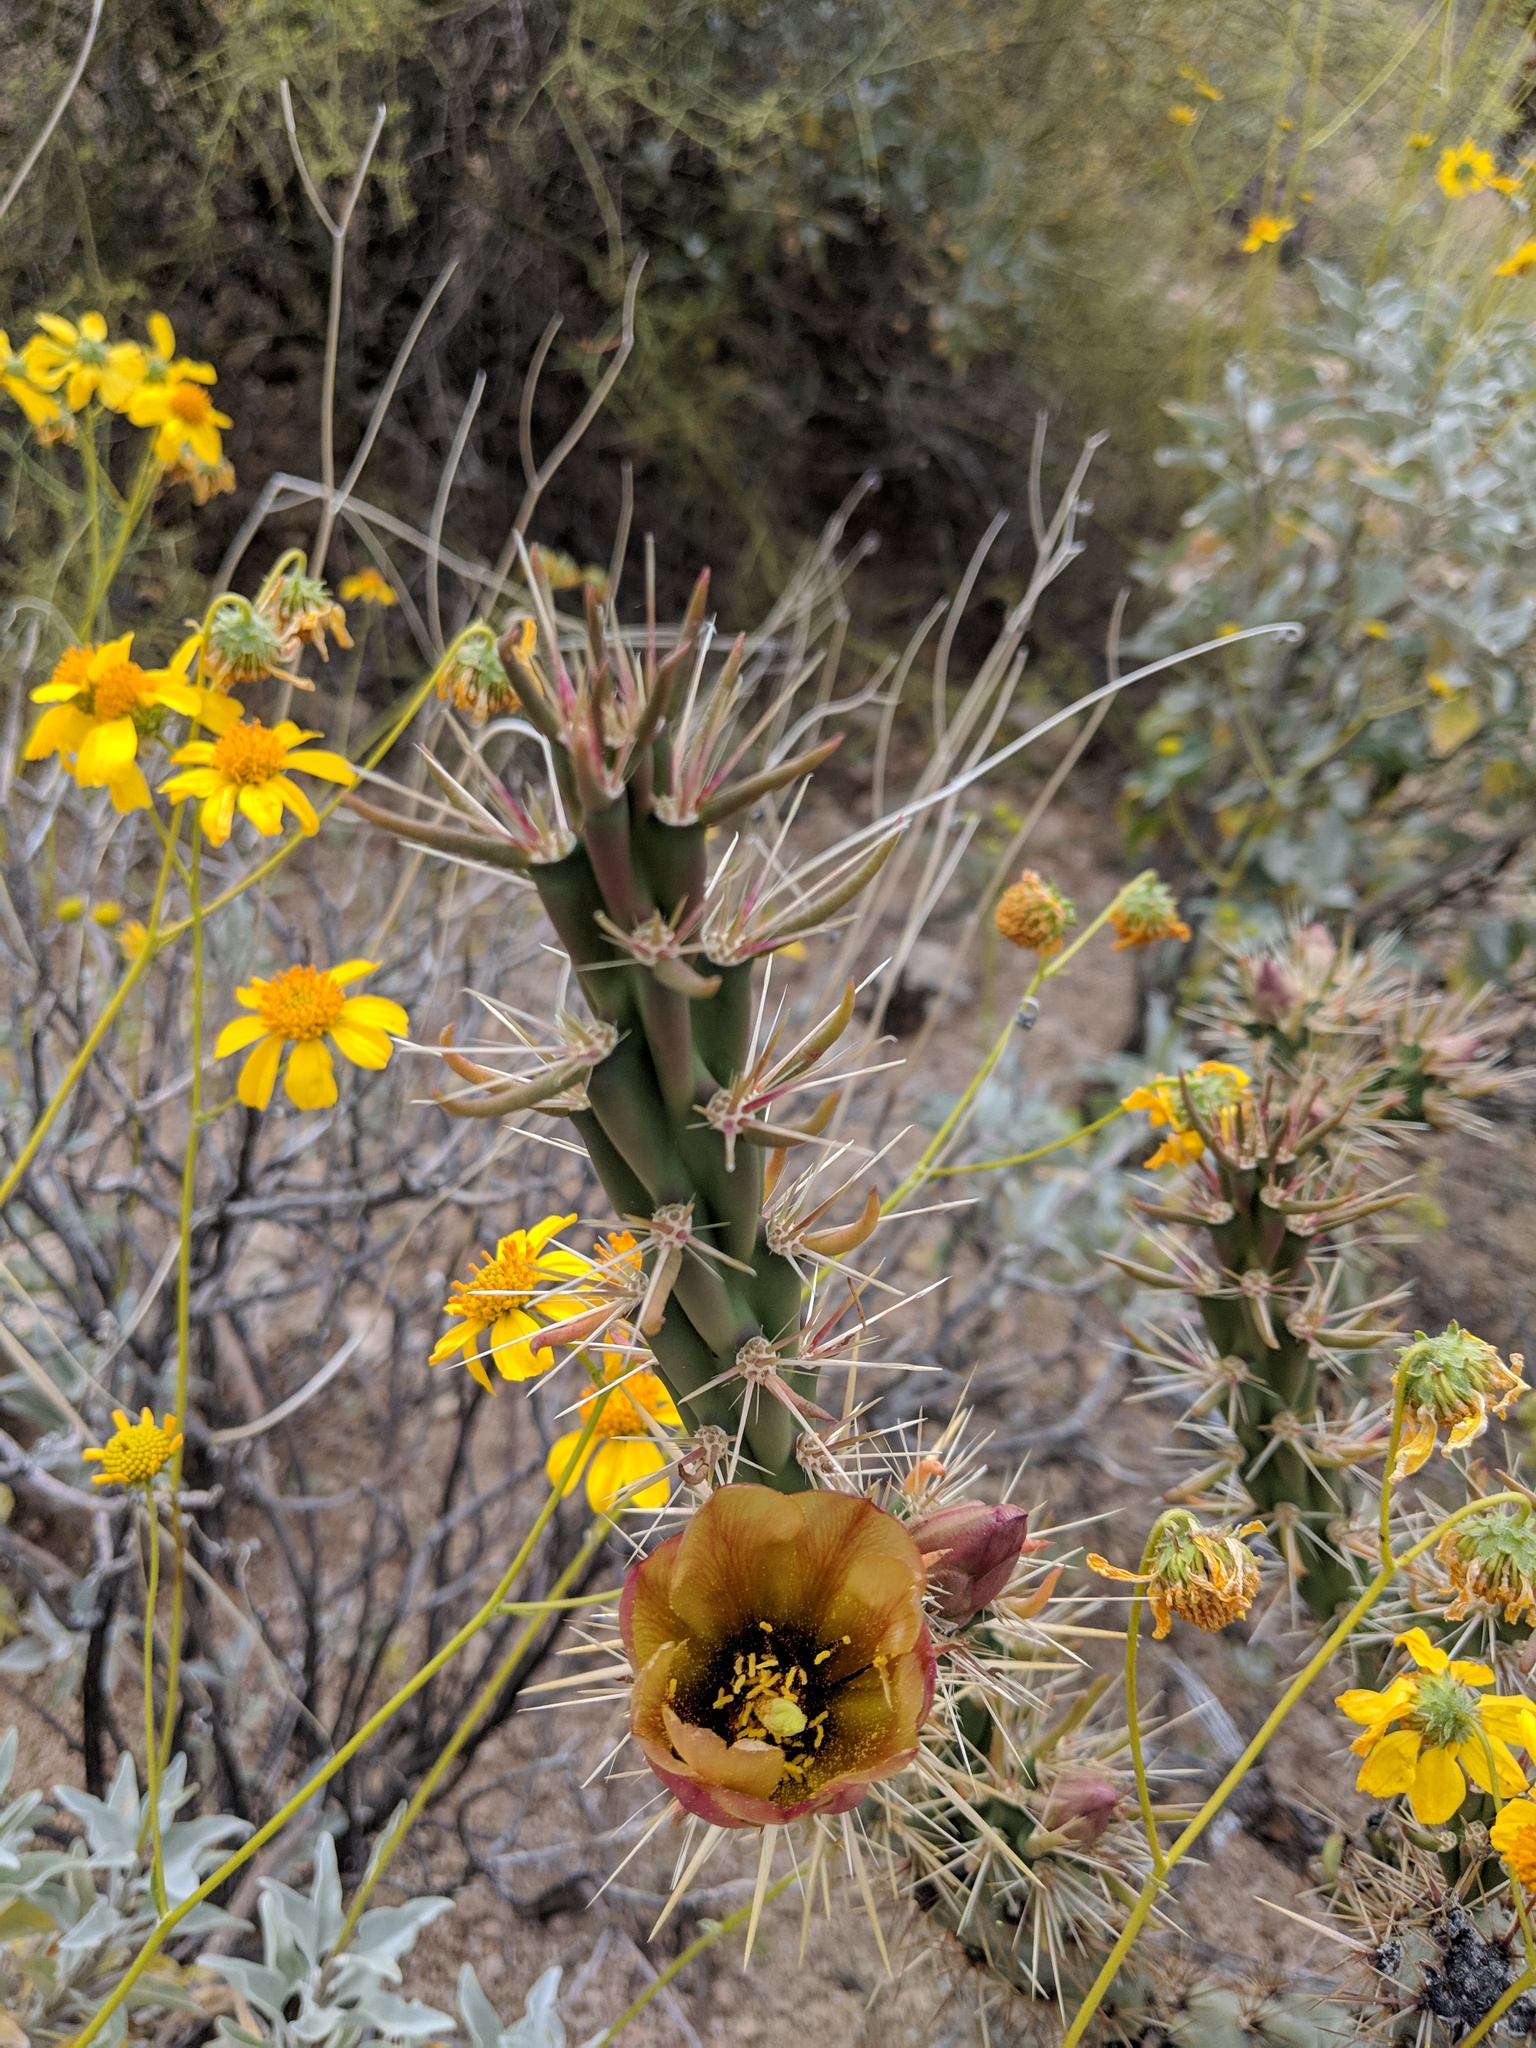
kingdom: Plantae
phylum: Tracheophyta
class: Magnoliopsida
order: Caryophyllales
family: Cactaceae
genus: Cylindropuntia
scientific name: Cylindropuntia acanthocarpa
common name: Buckhorn cholla
